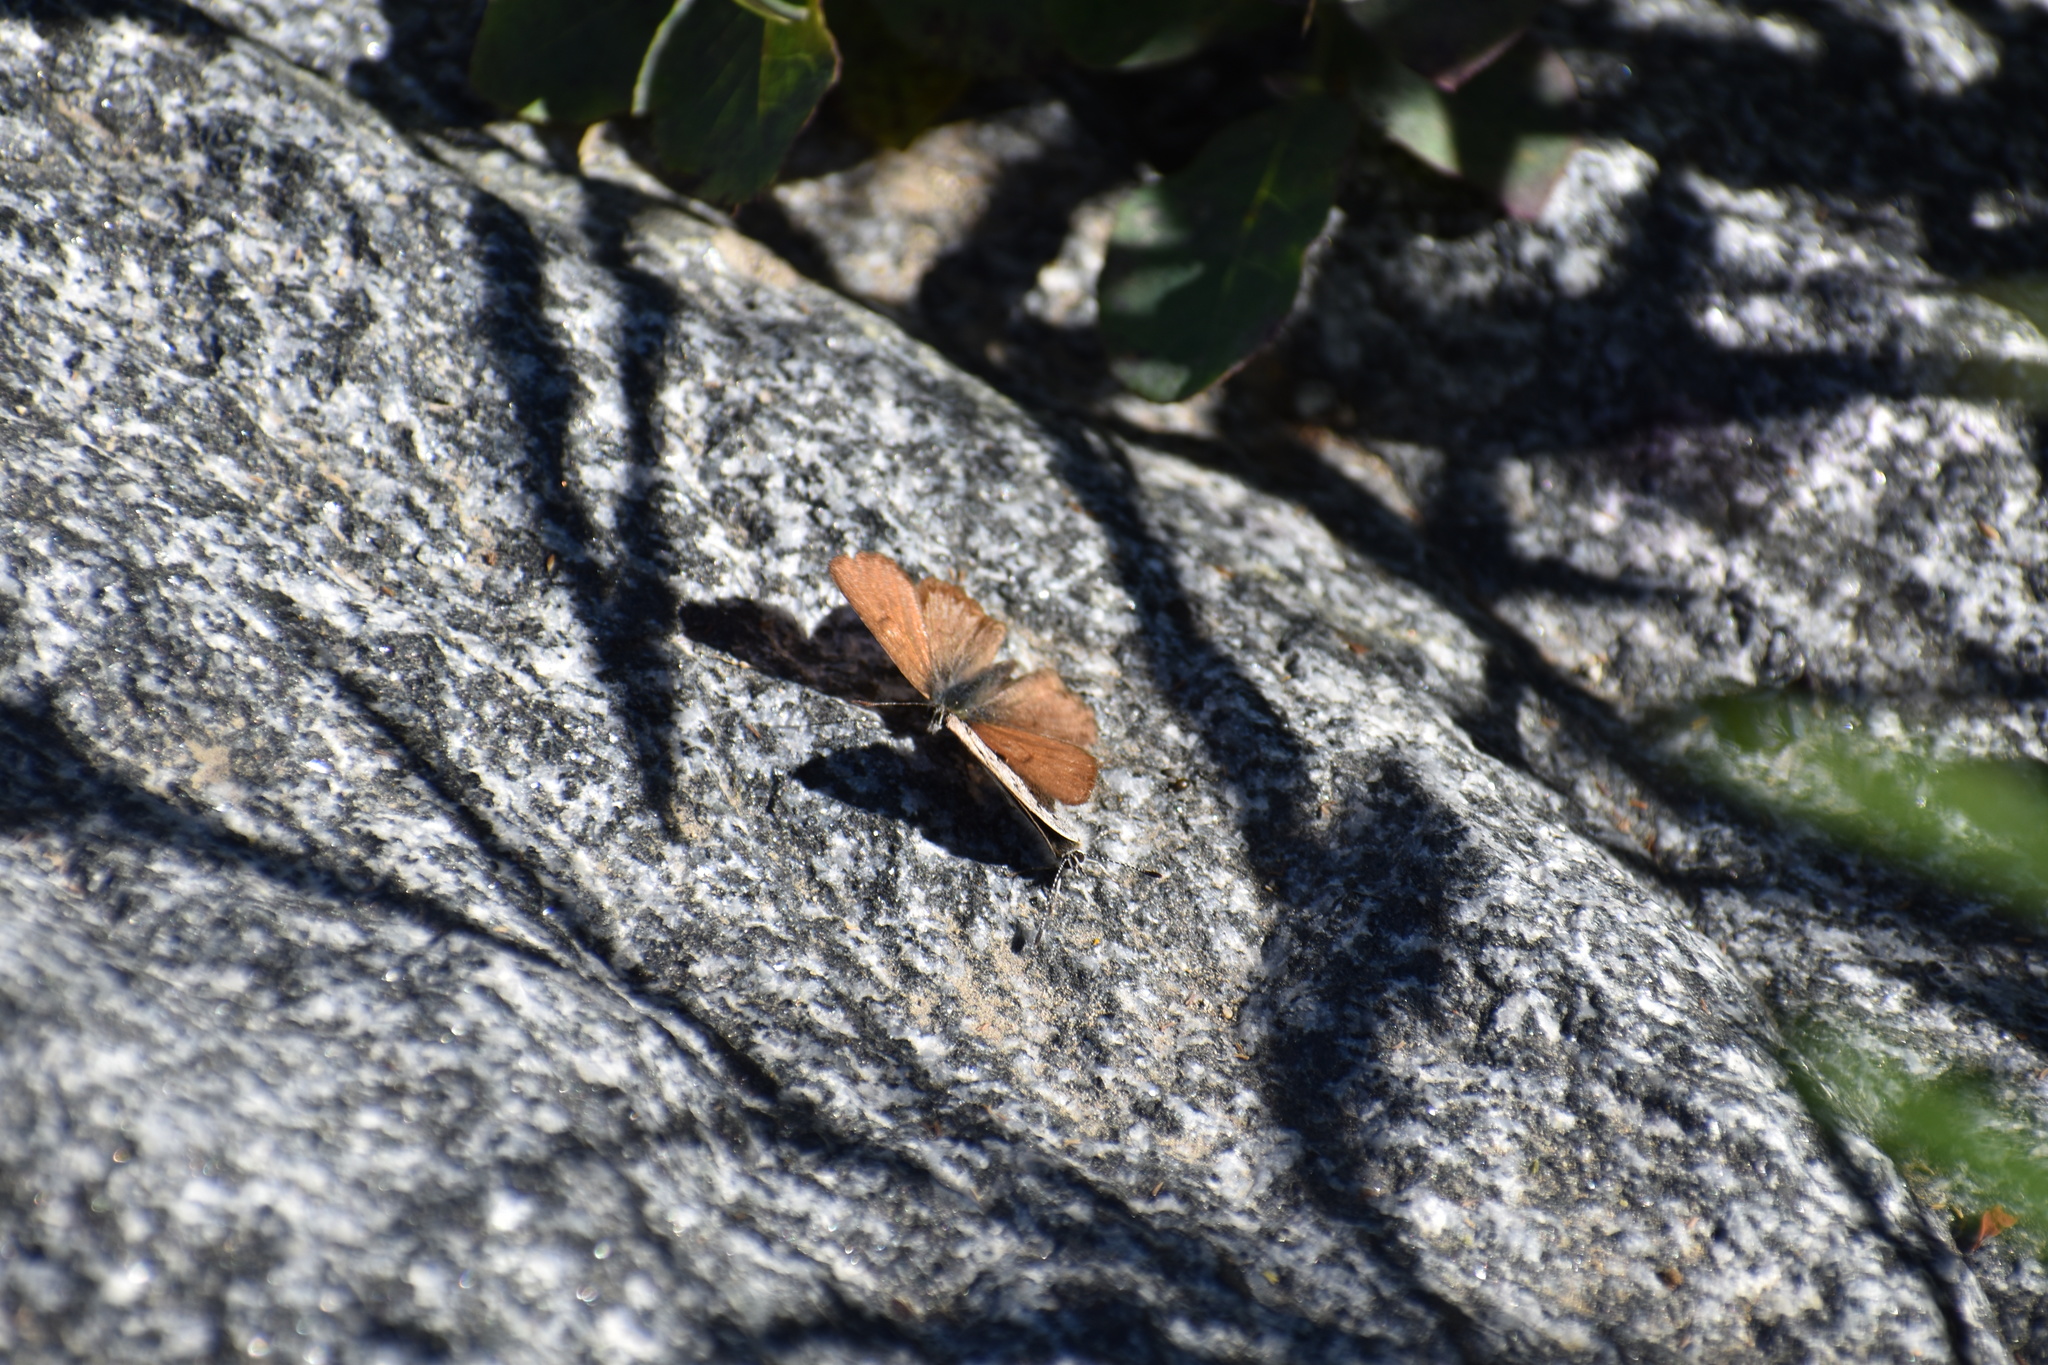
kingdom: Animalia
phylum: Arthropoda
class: Insecta
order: Lepidoptera
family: Lycaenidae
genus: Tharsalea
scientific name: Tharsalea mariposa
